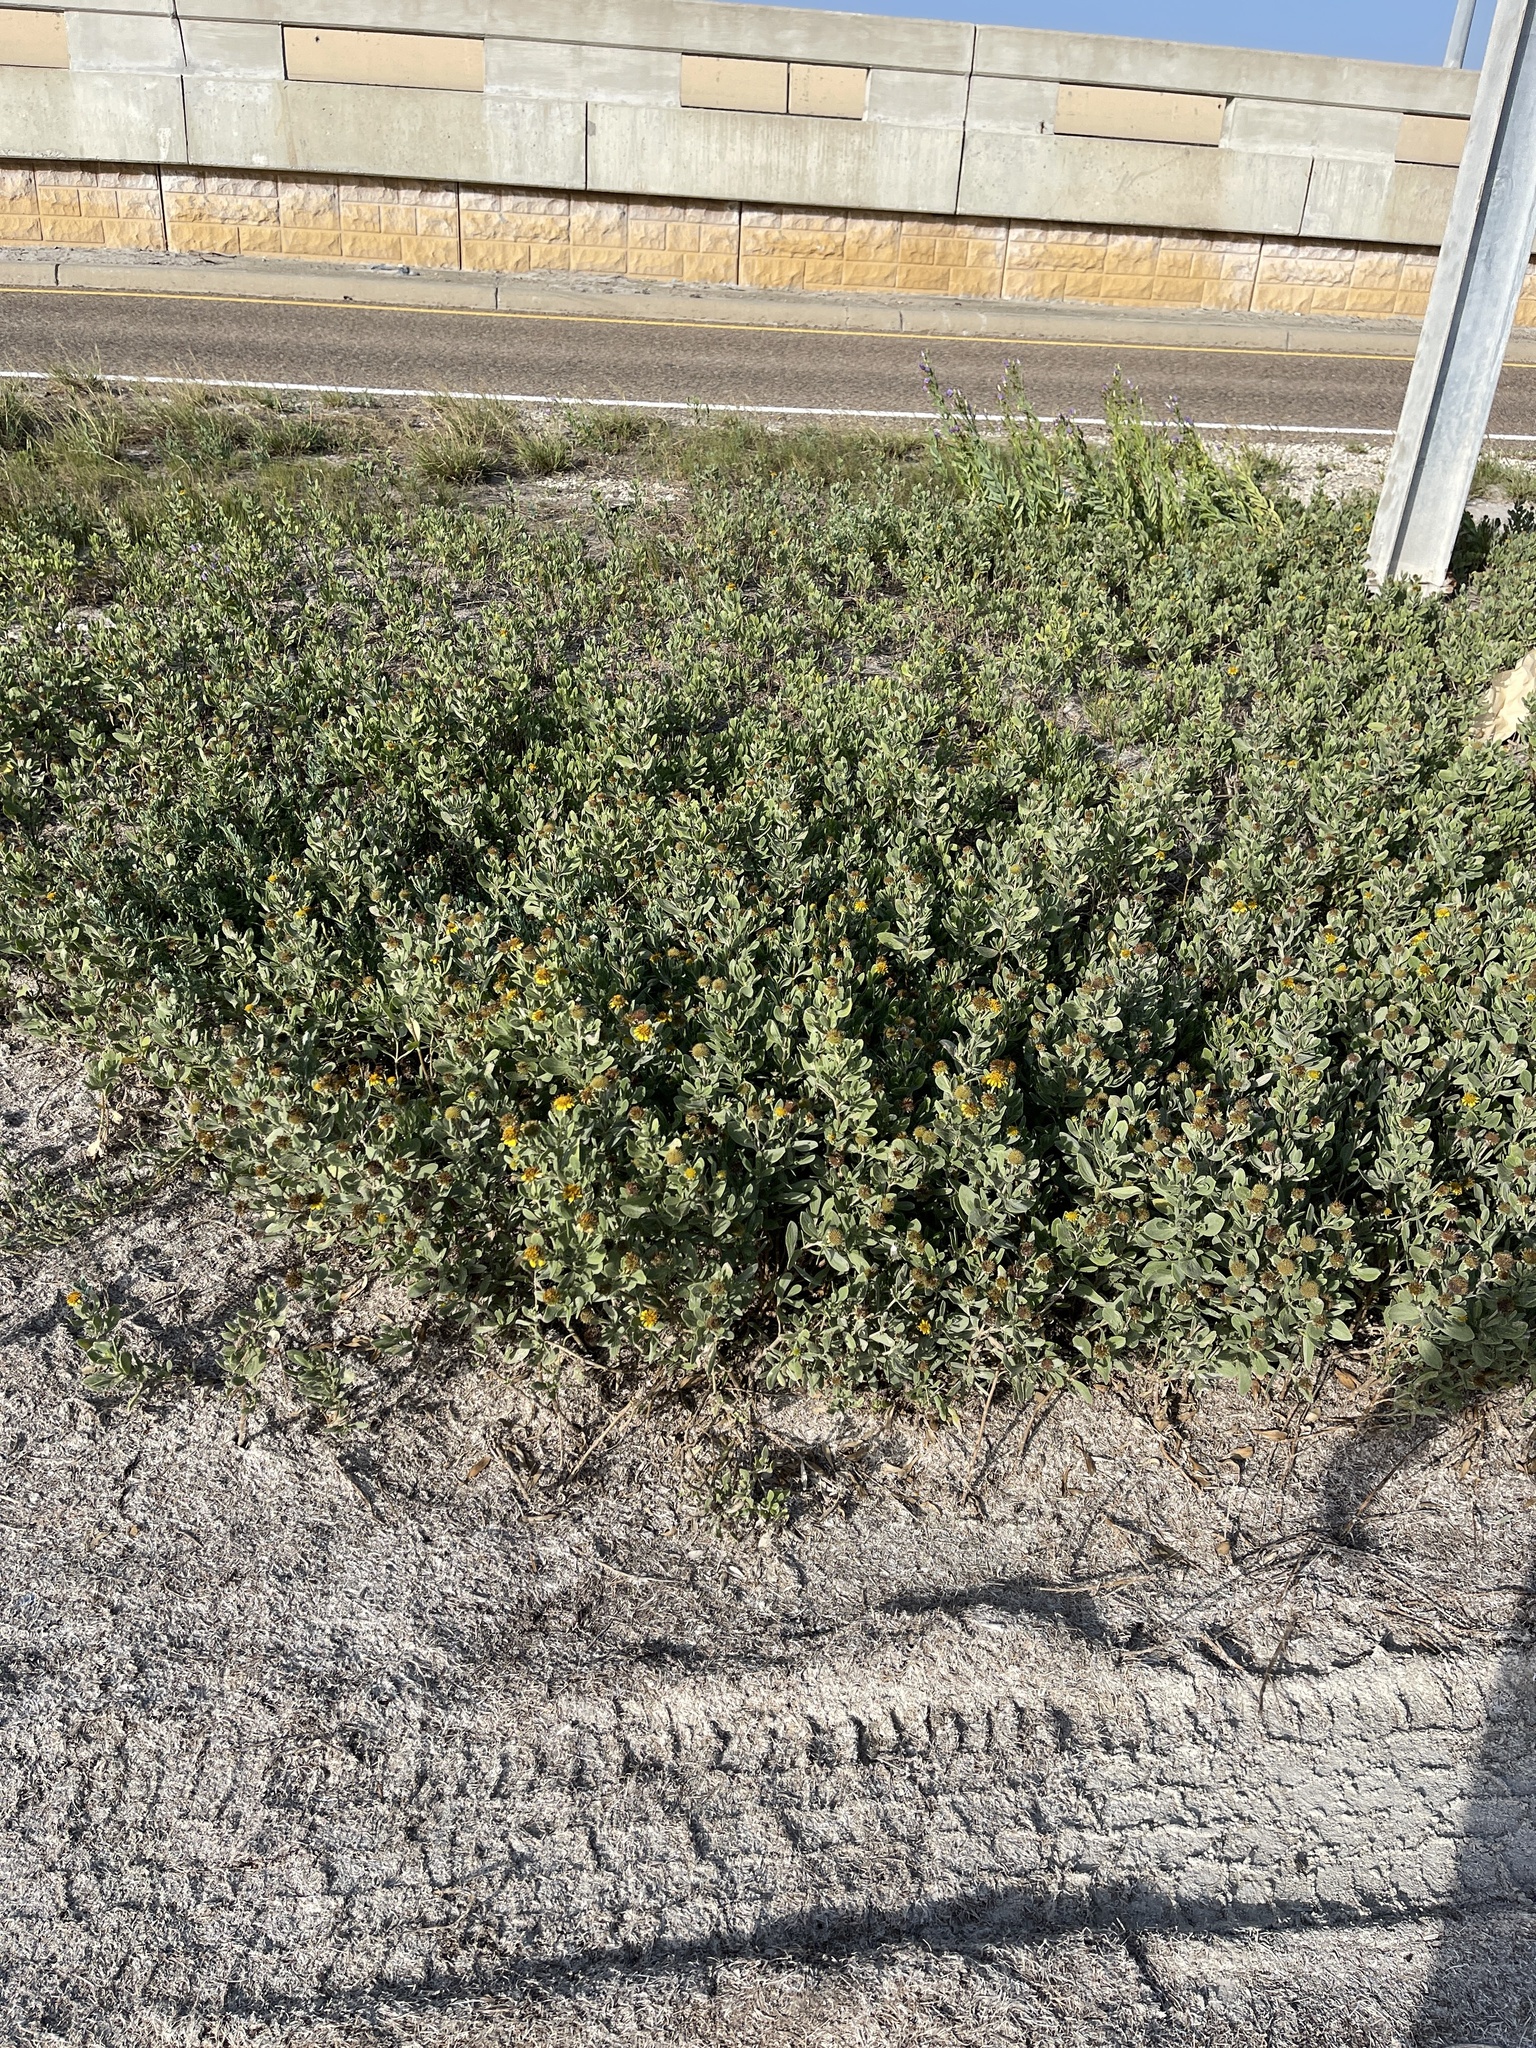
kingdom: Plantae
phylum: Tracheophyta
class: Magnoliopsida
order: Asterales
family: Asteraceae
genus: Borrichia
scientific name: Borrichia frutescens
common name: Sea oxeye
